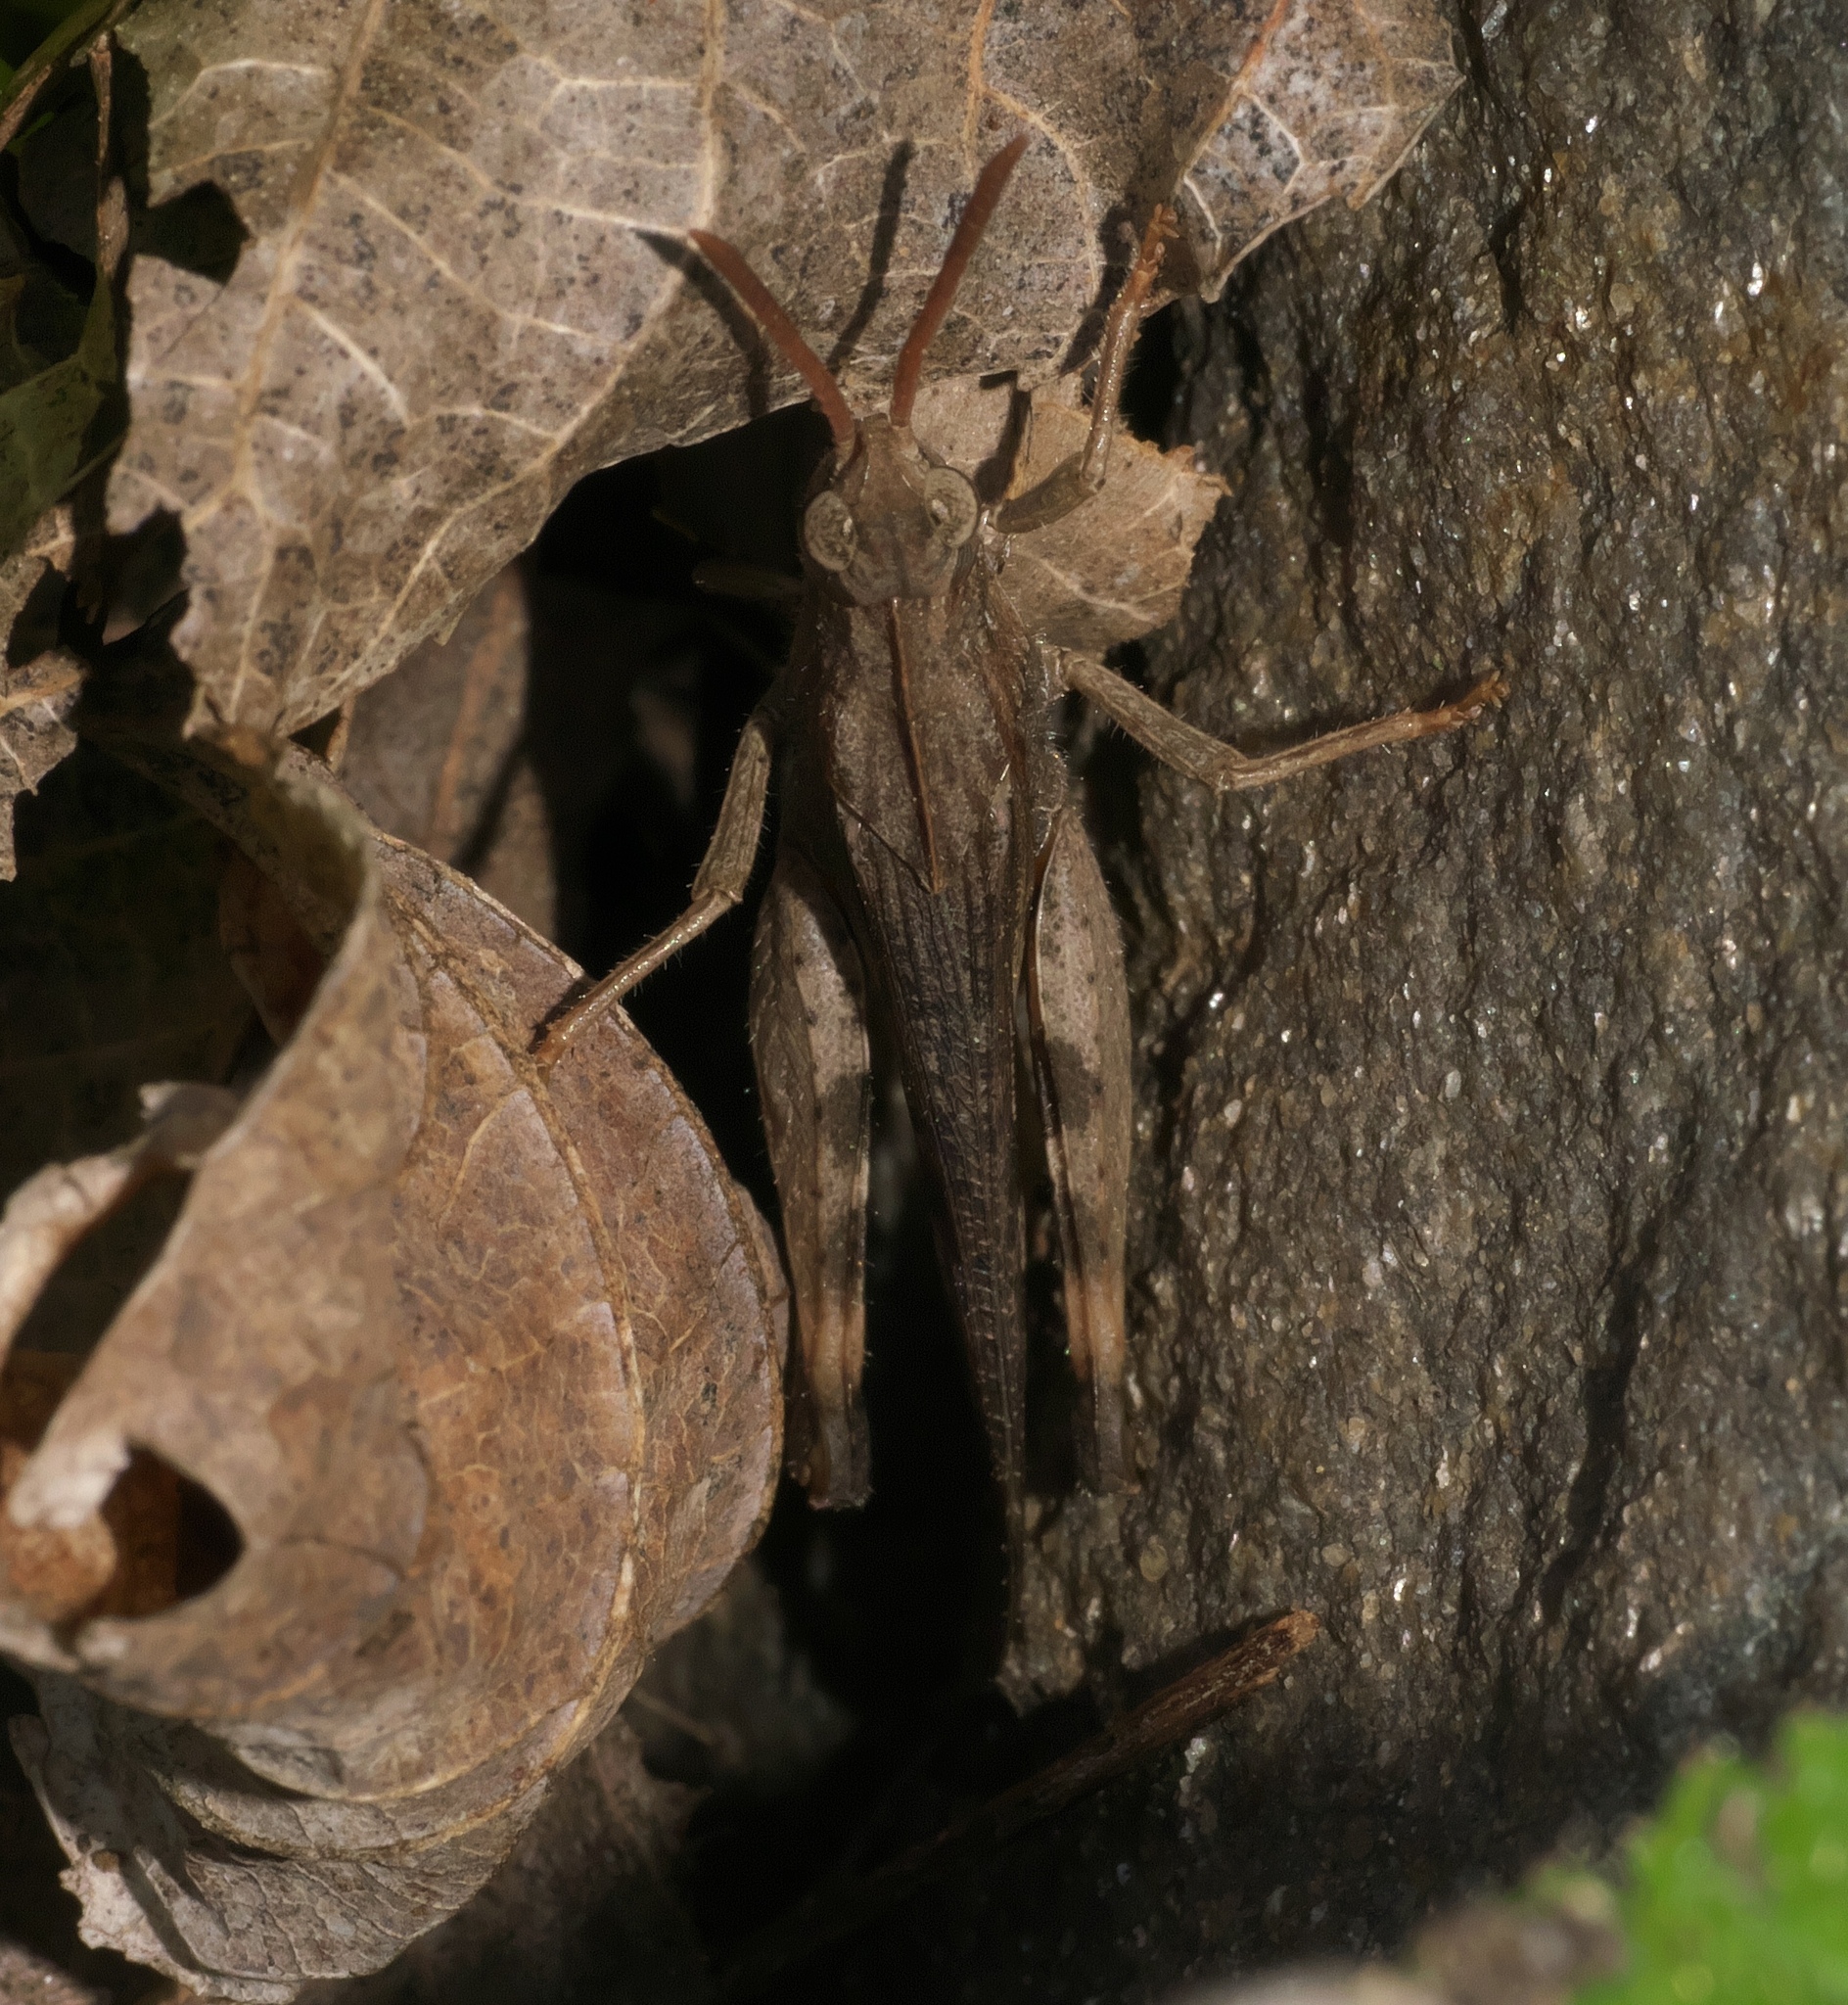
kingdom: Animalia
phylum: Arthropoda
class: Insecta
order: Orthoptera
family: Acrididae
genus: Chortophaga
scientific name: Chortophaga viridifasciata
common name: Green-striped grasshopper
